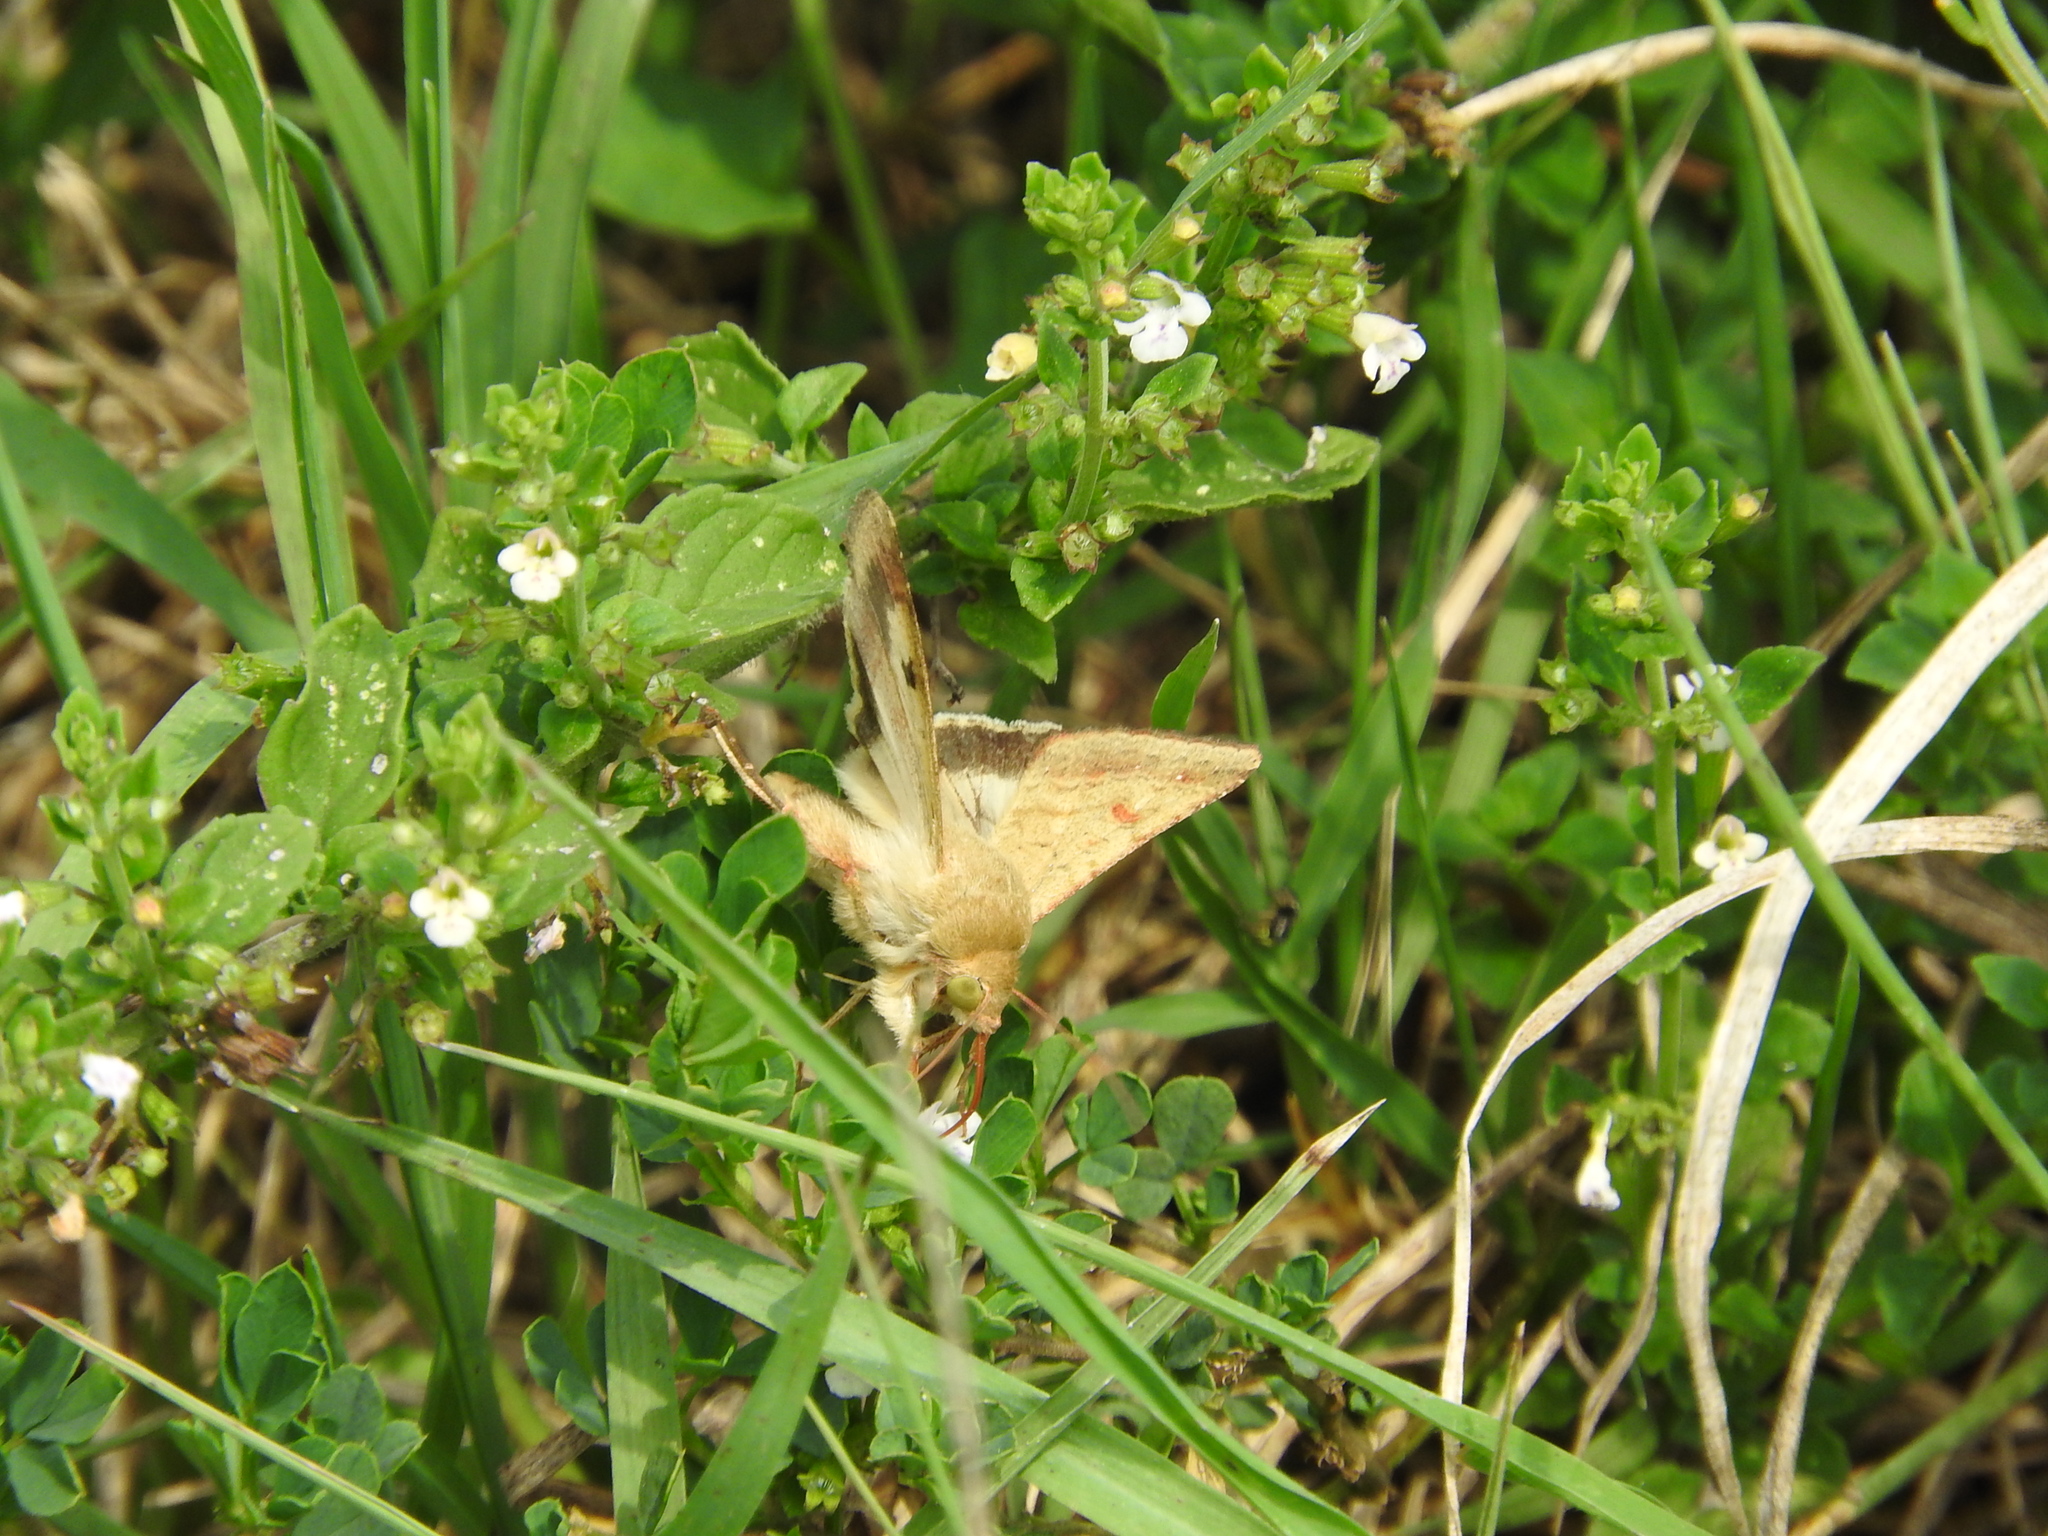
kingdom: Animalia
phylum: Arthropoda
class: Insecta
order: Lepidoptera
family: Noctuidae
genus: Helicoverpa
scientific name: Helicoverpa armigera
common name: Cotton bollworm
